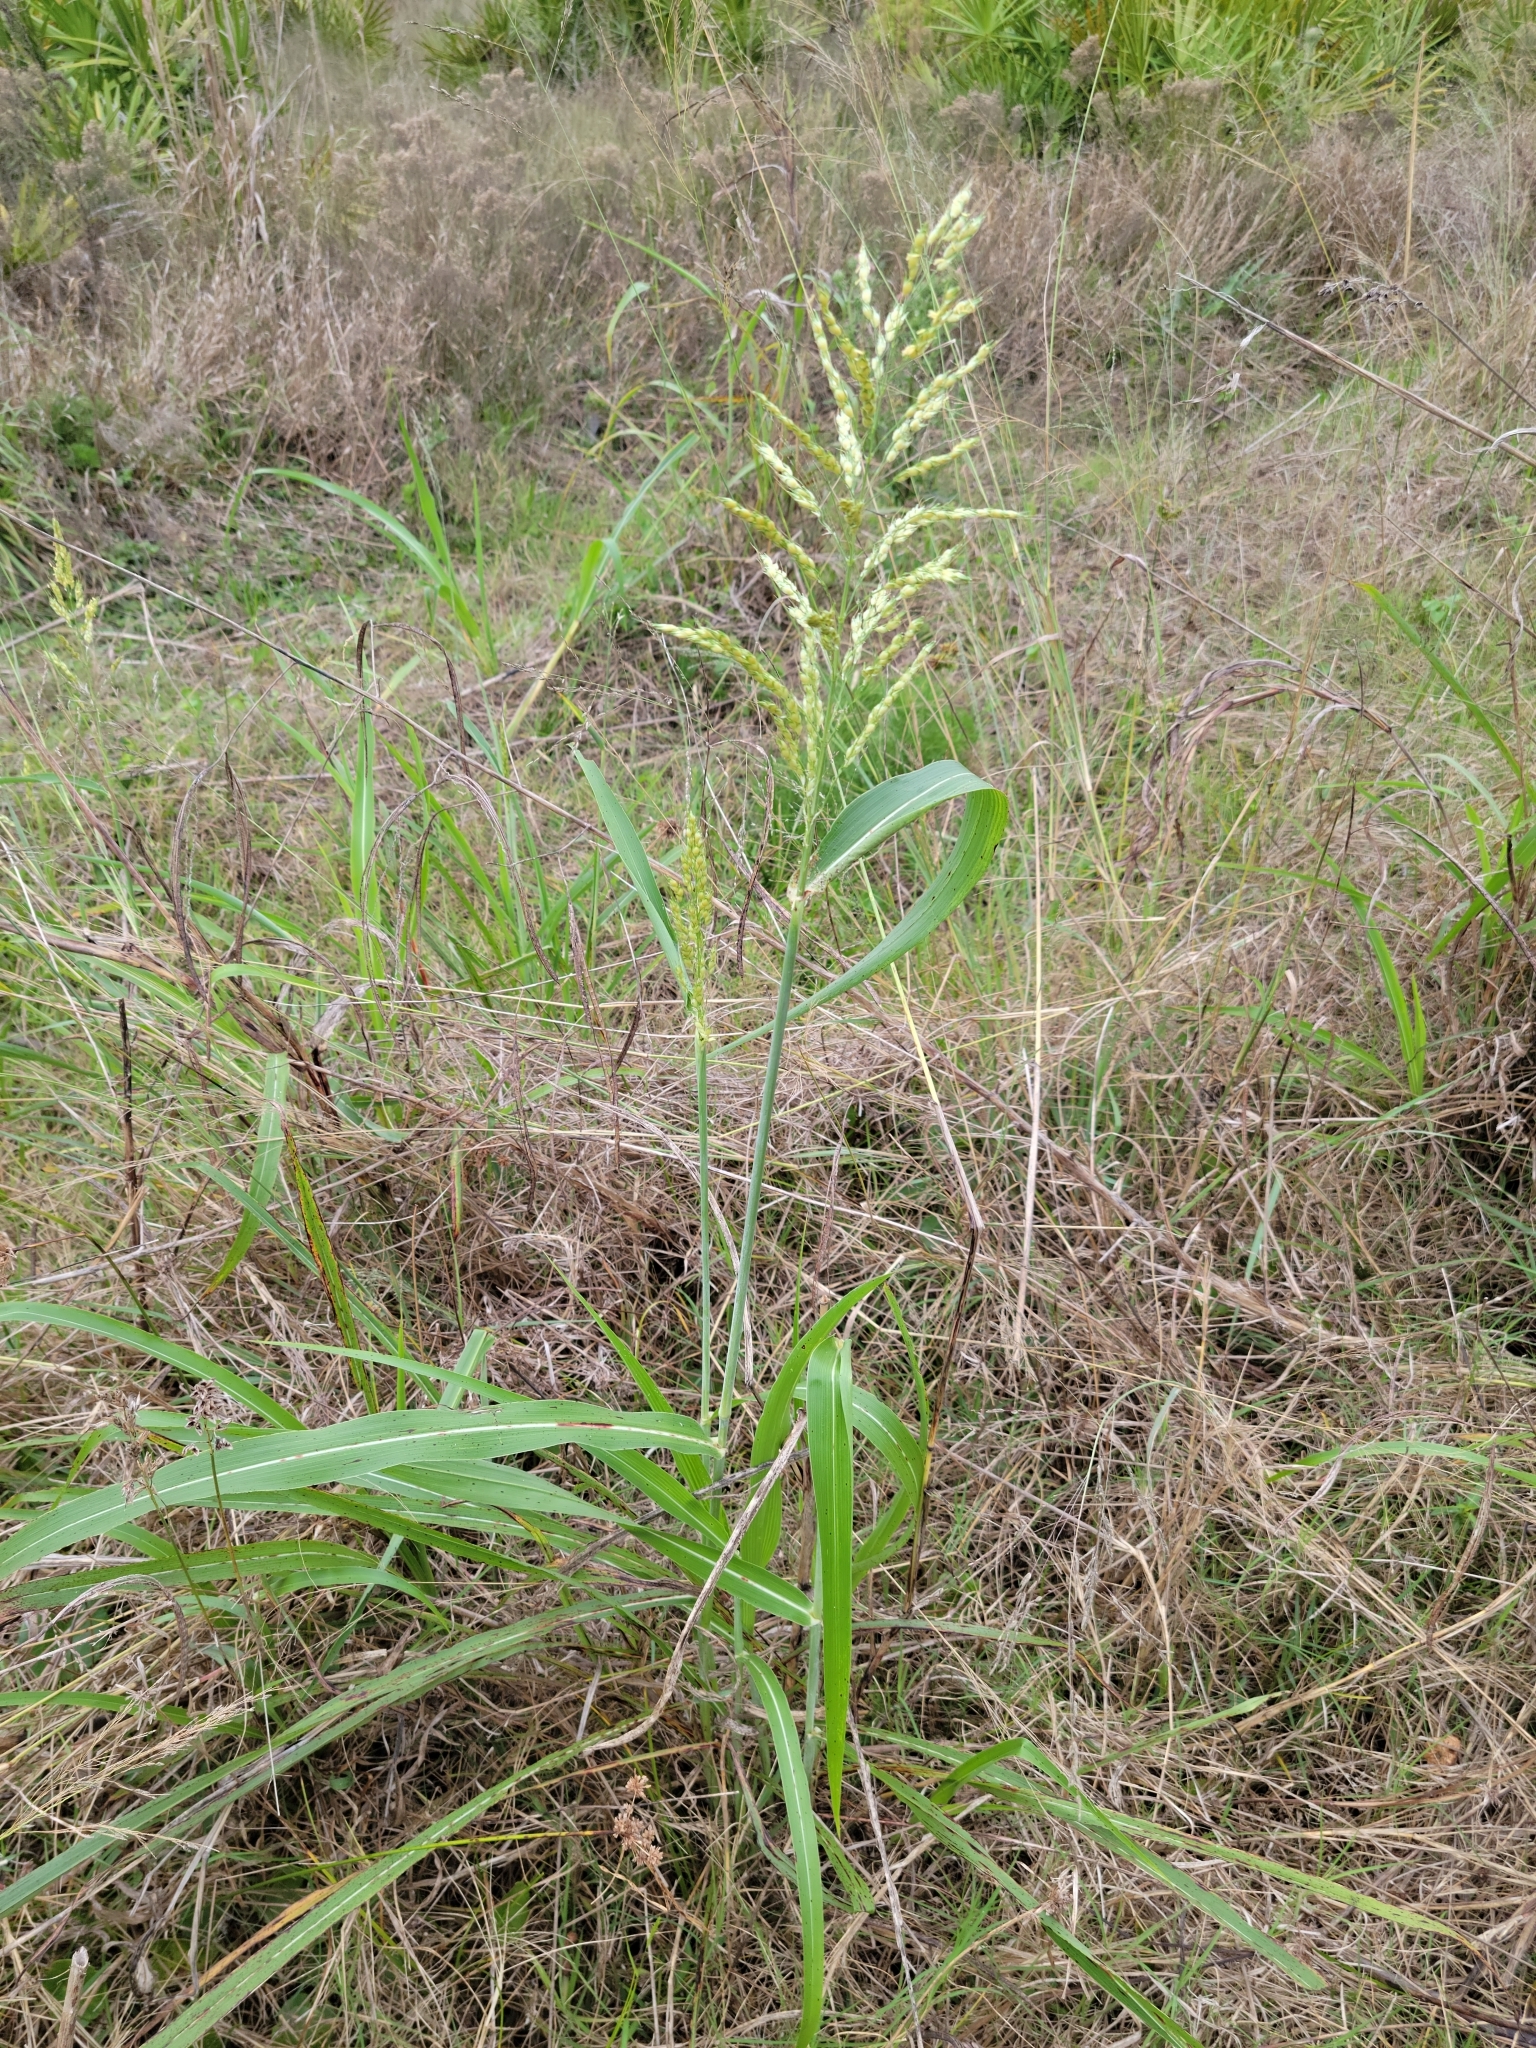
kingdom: Plantae
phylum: Tracheophyta
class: Liliopsida
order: Poales
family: Poaceae
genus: Sorghum
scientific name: Sorghum halepense
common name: Johnson-grass
